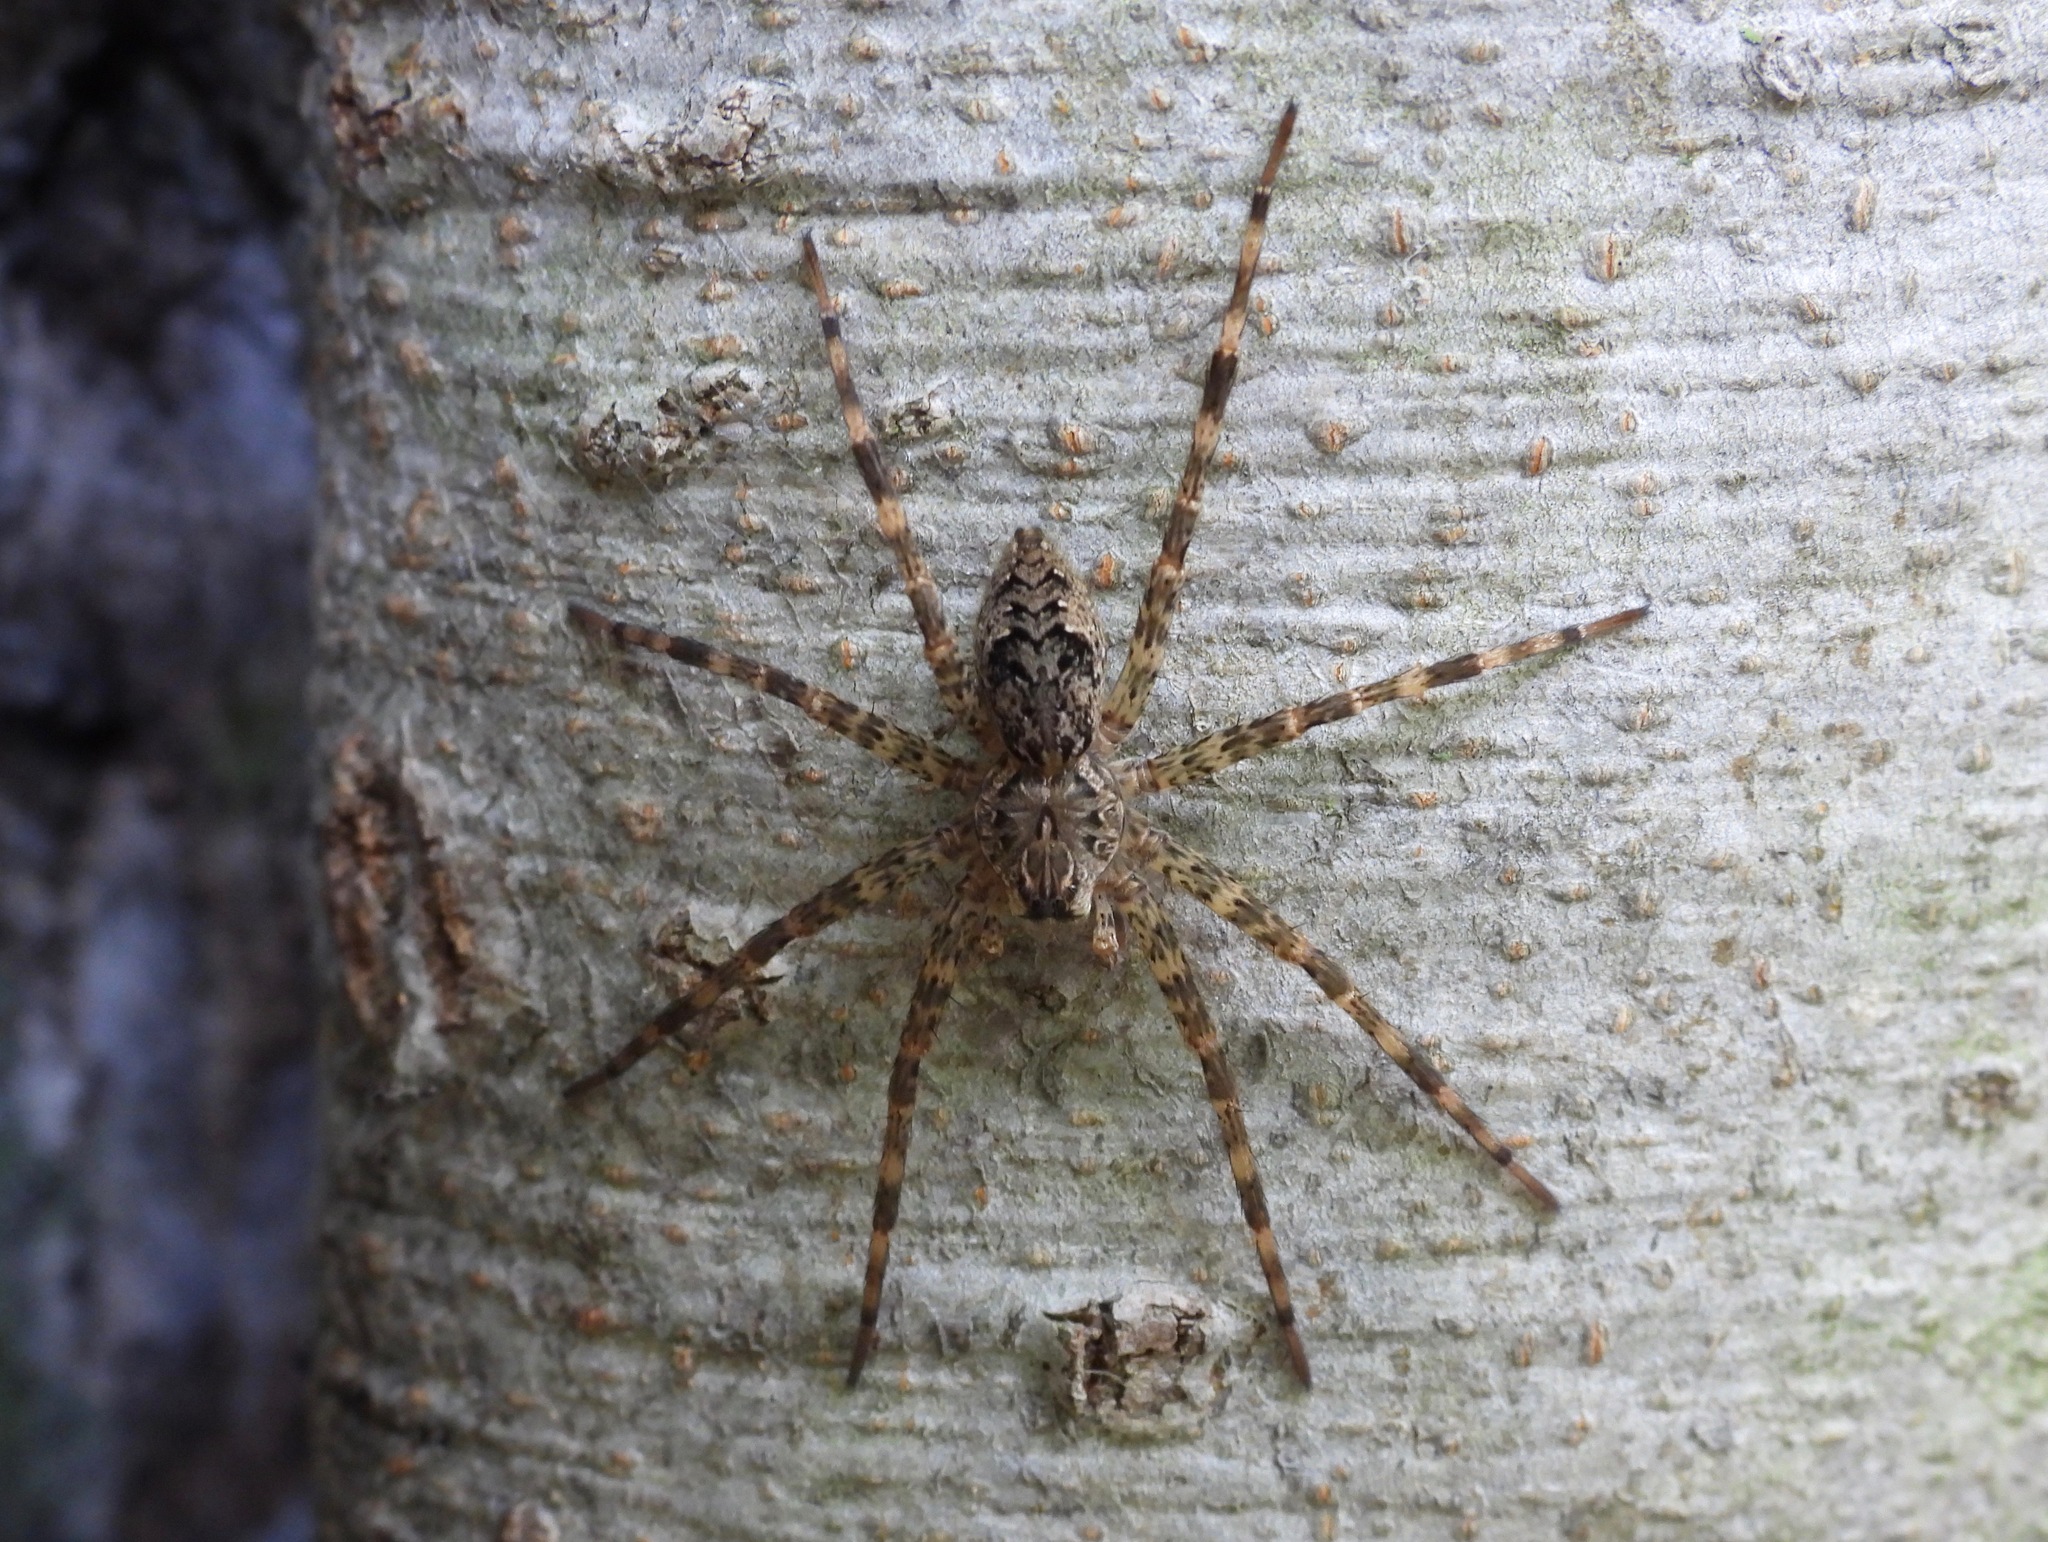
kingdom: Animalia
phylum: Arthropoda
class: Arachnida
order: Araneae
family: Pisauridae
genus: Dolomedes
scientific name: Dolomedes tenebrosus
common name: Dark fishing spider
